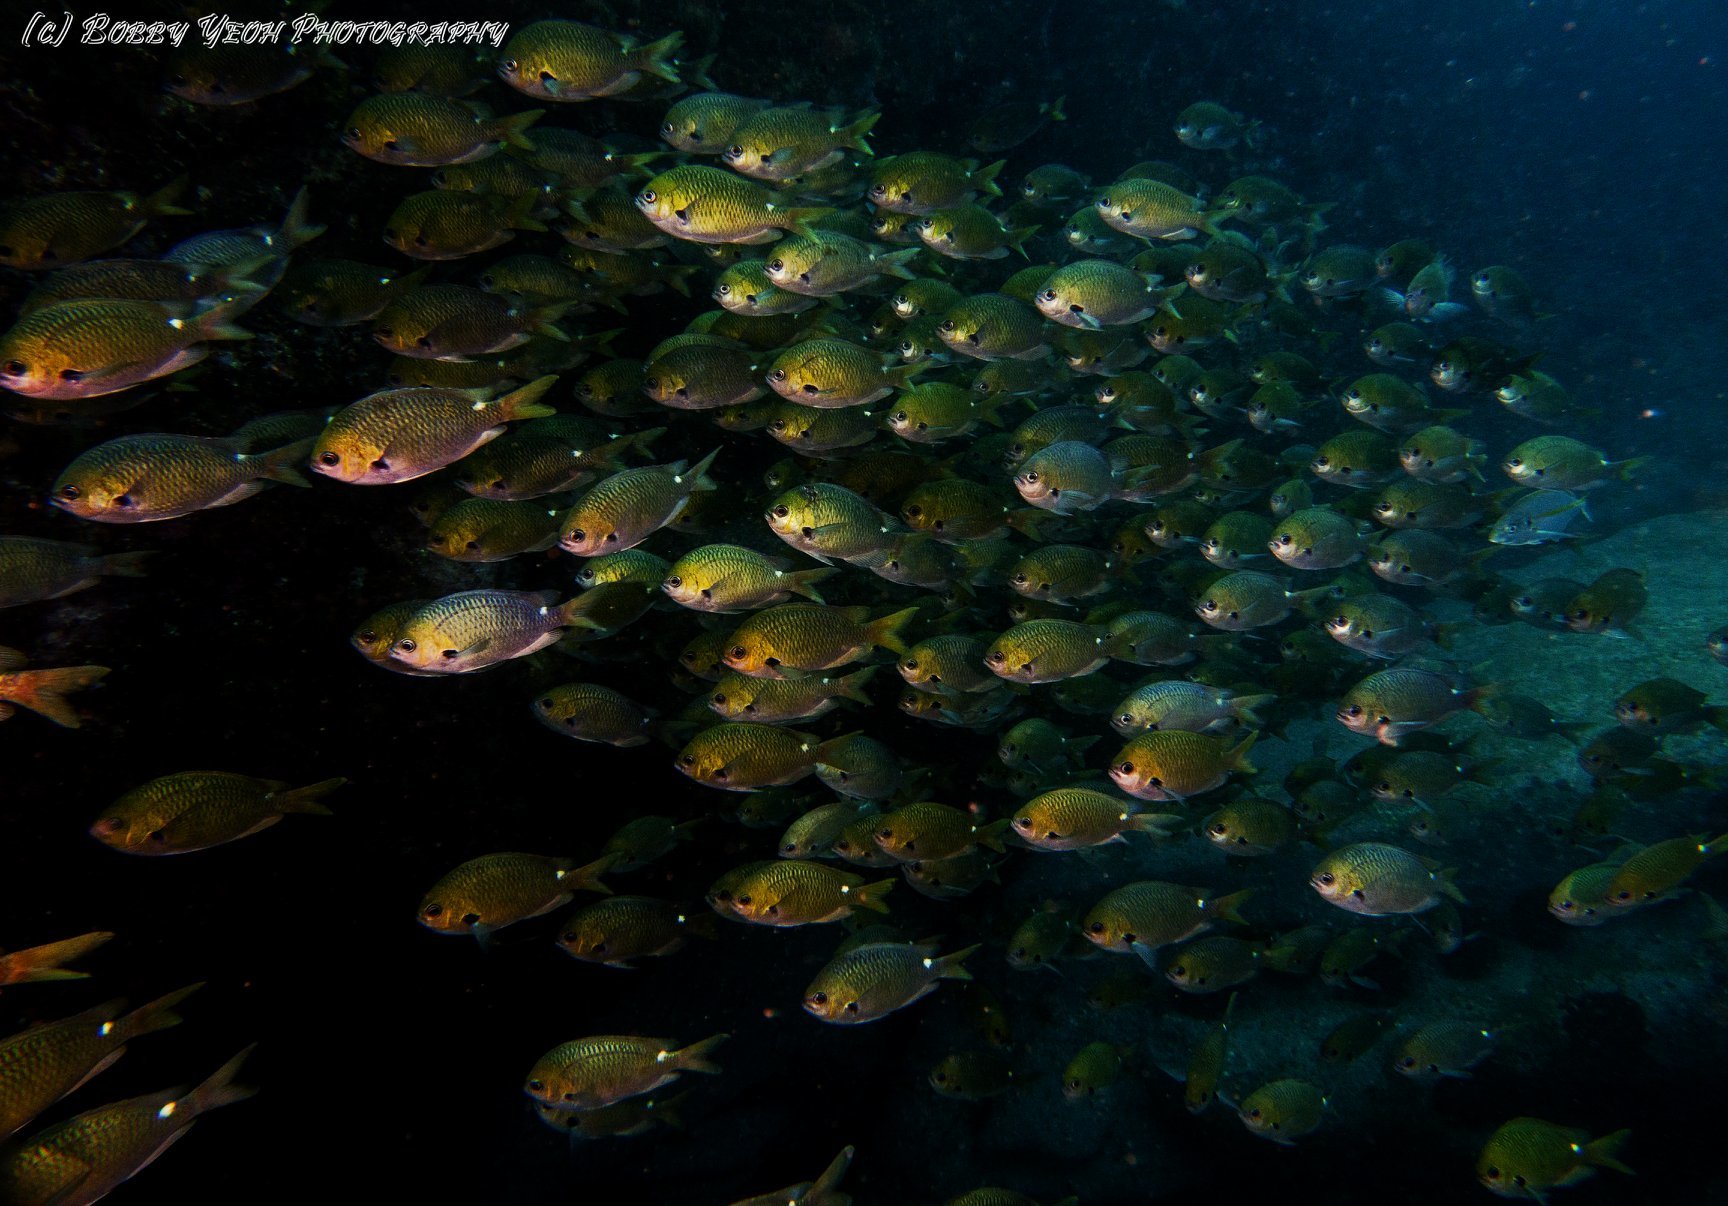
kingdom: Animalia
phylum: Chordata
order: Perciformes
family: Pomacentridae
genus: Chromis
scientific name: Chromis hypsilepis
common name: Brown puller
